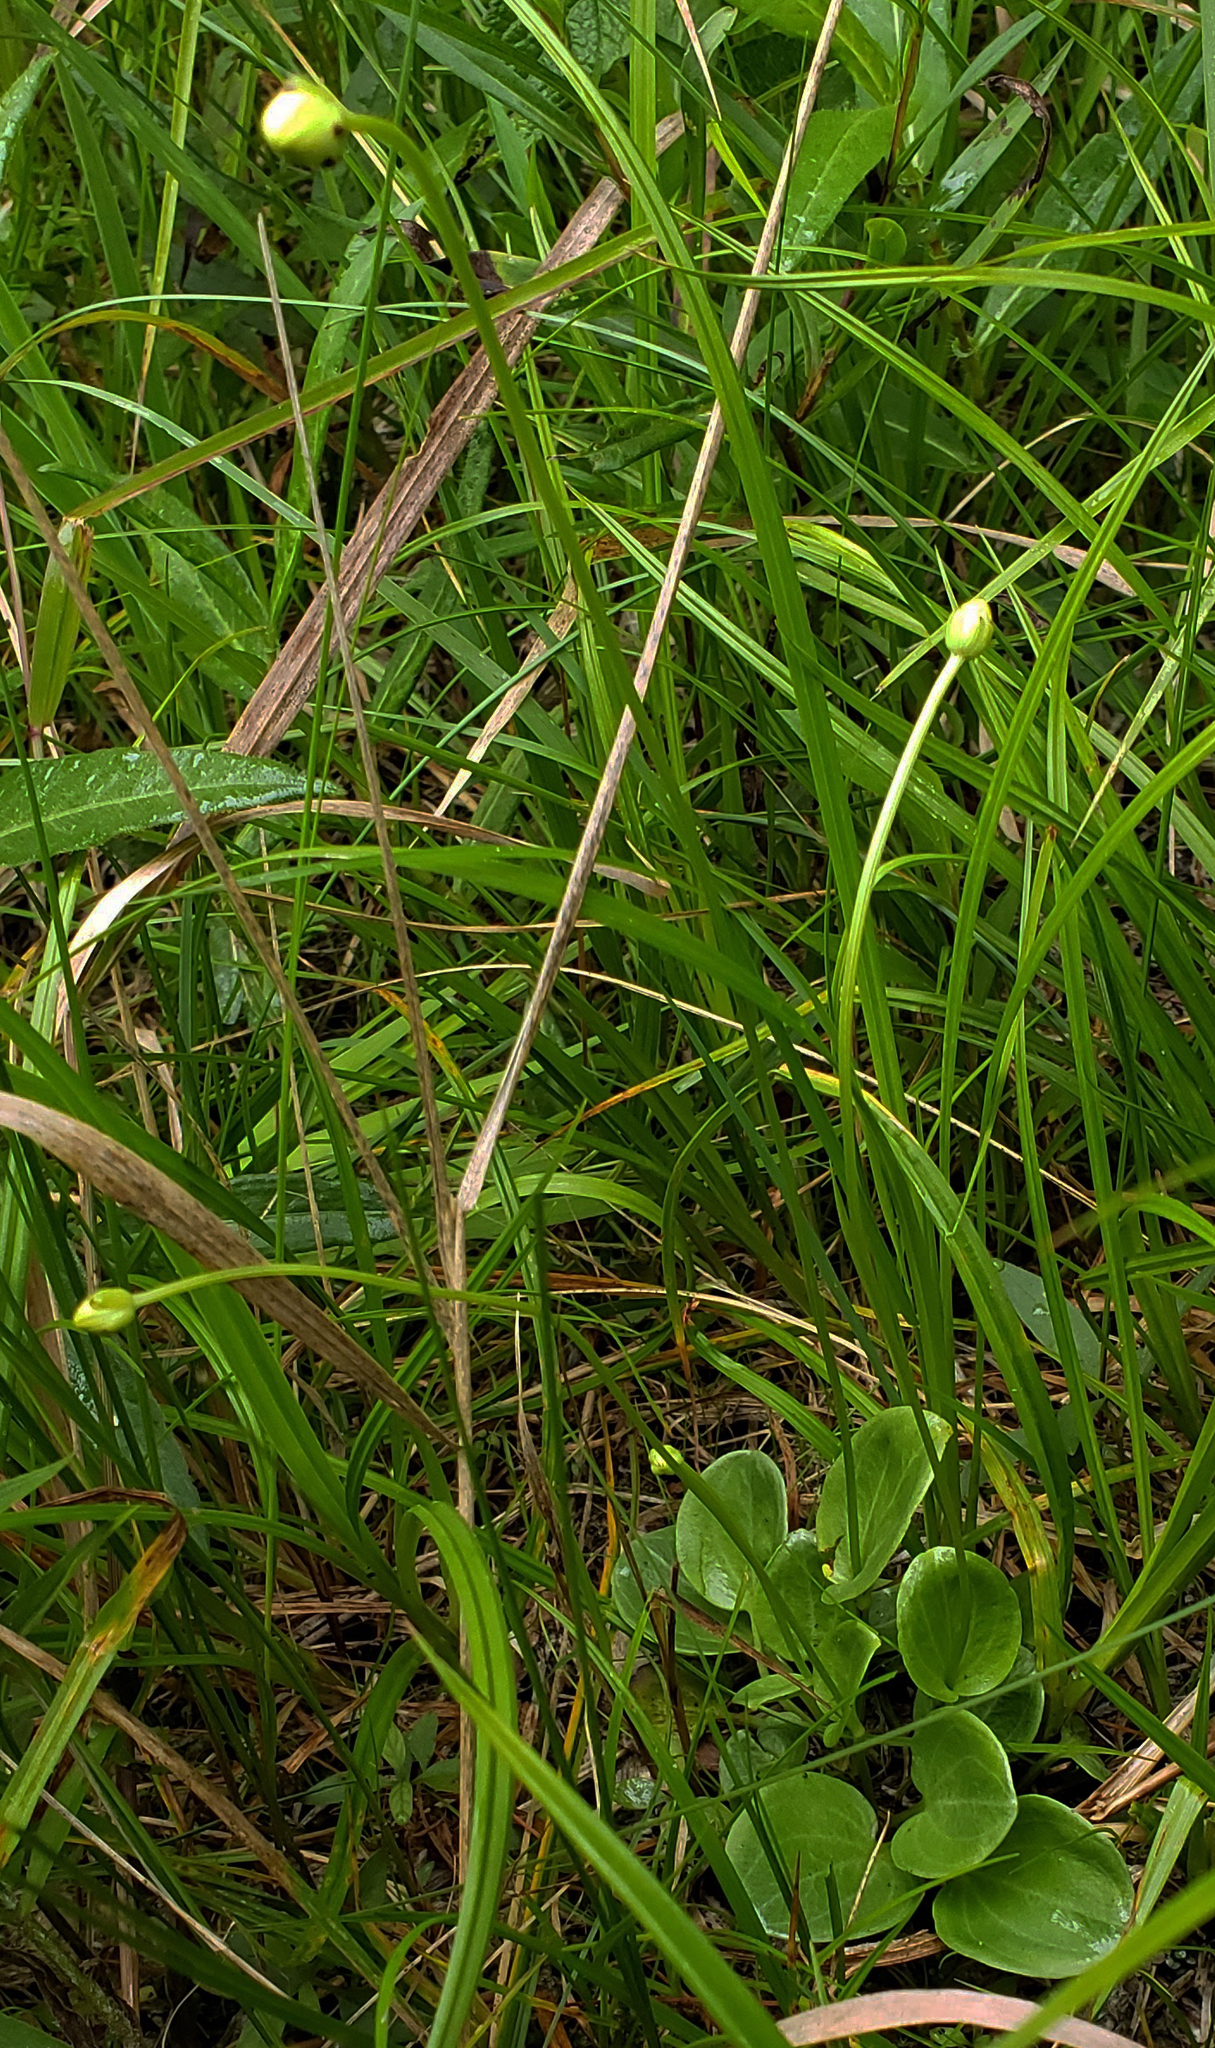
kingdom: Plantae
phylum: Tracheophyta
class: Magnoliopsida
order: Celastrales
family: Parnassiaceae
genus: Parnassia
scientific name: Parnassia glauca
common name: American grass-of-parnassus
